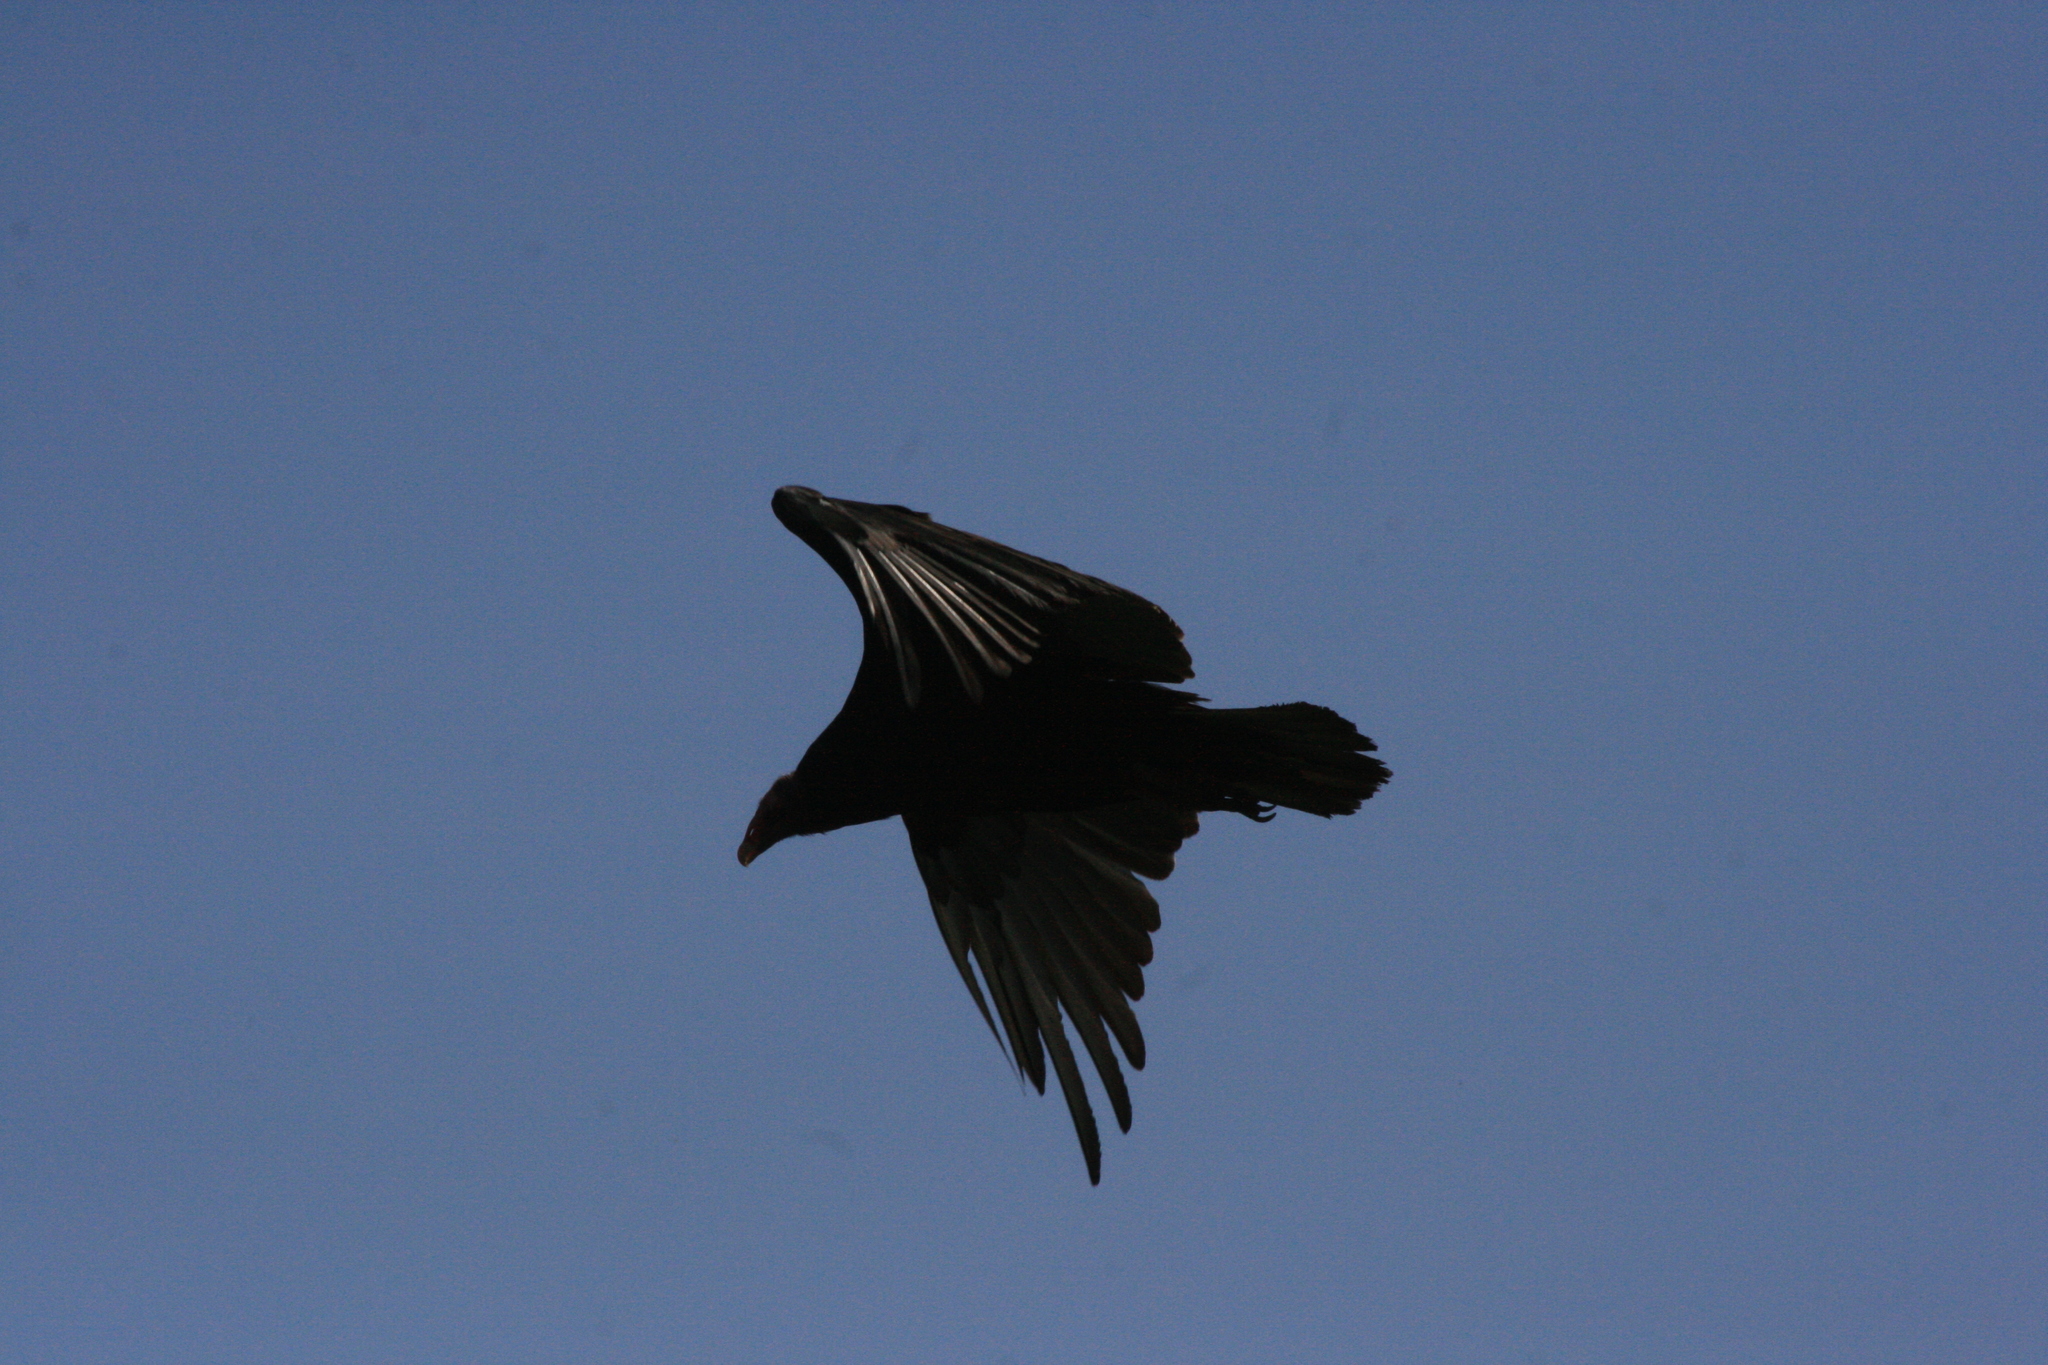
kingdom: Animalia
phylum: Chordata
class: Aves
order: Accipitriformes
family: Cathartidae
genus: Cathartes
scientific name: Cathartes aura
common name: Turkey vulture
